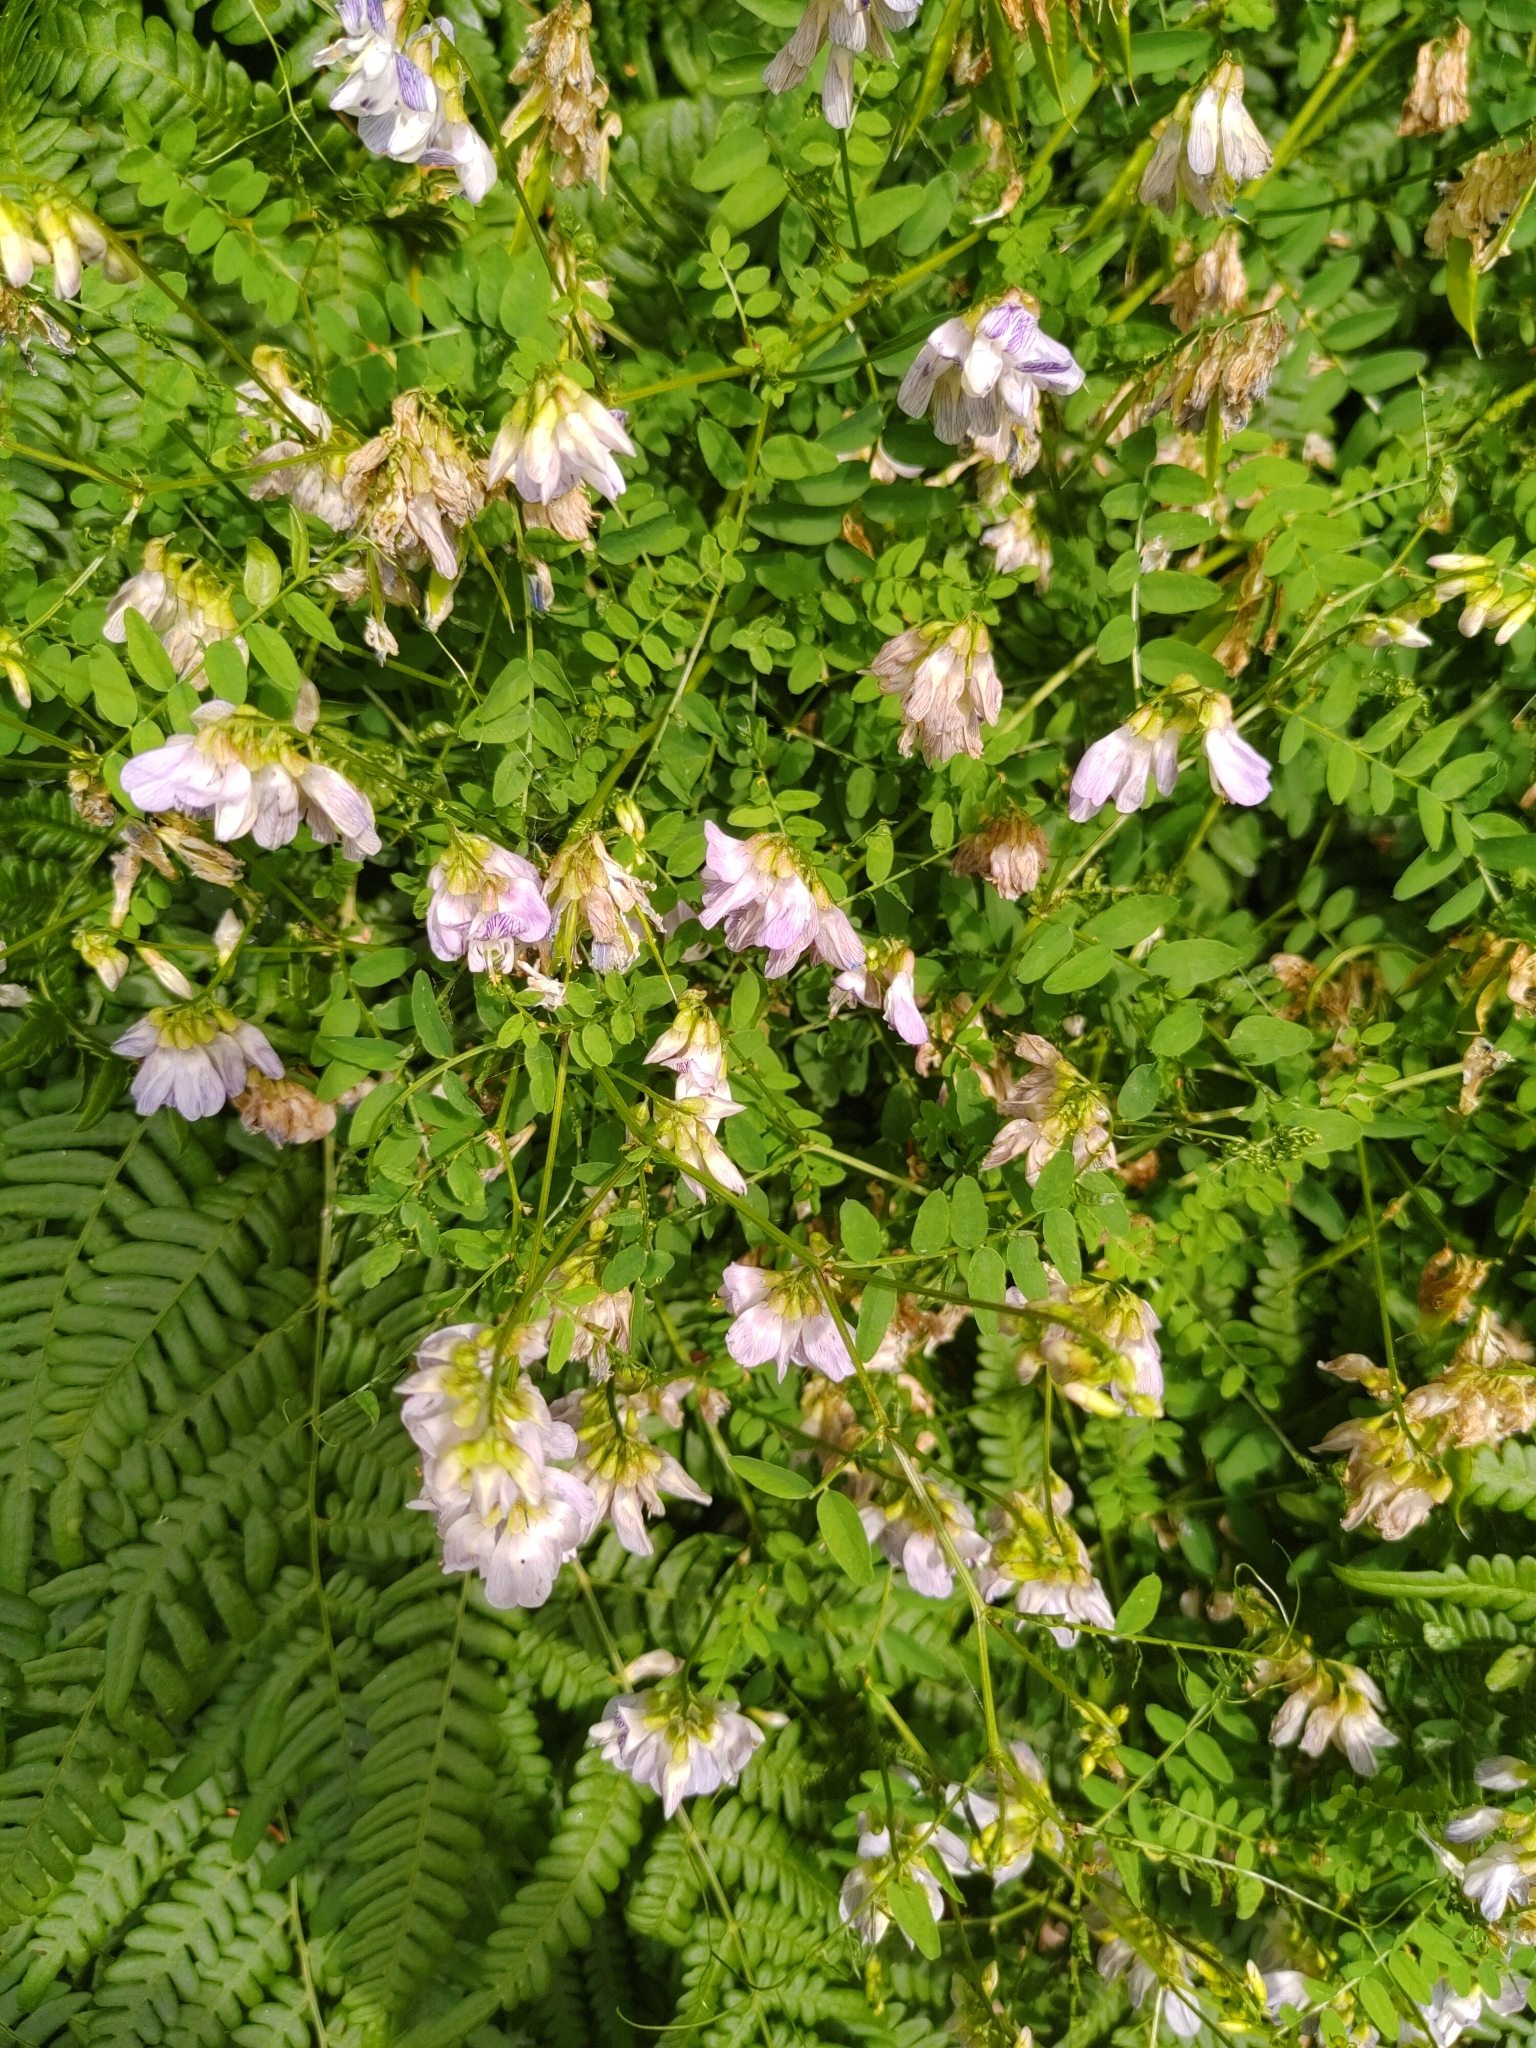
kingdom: Plantae
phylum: Tracheophyta
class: Magnoliopsida
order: Fabales
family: Fabaceae
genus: Vicia
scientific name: Vicia sylvatica
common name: Wood vetch
